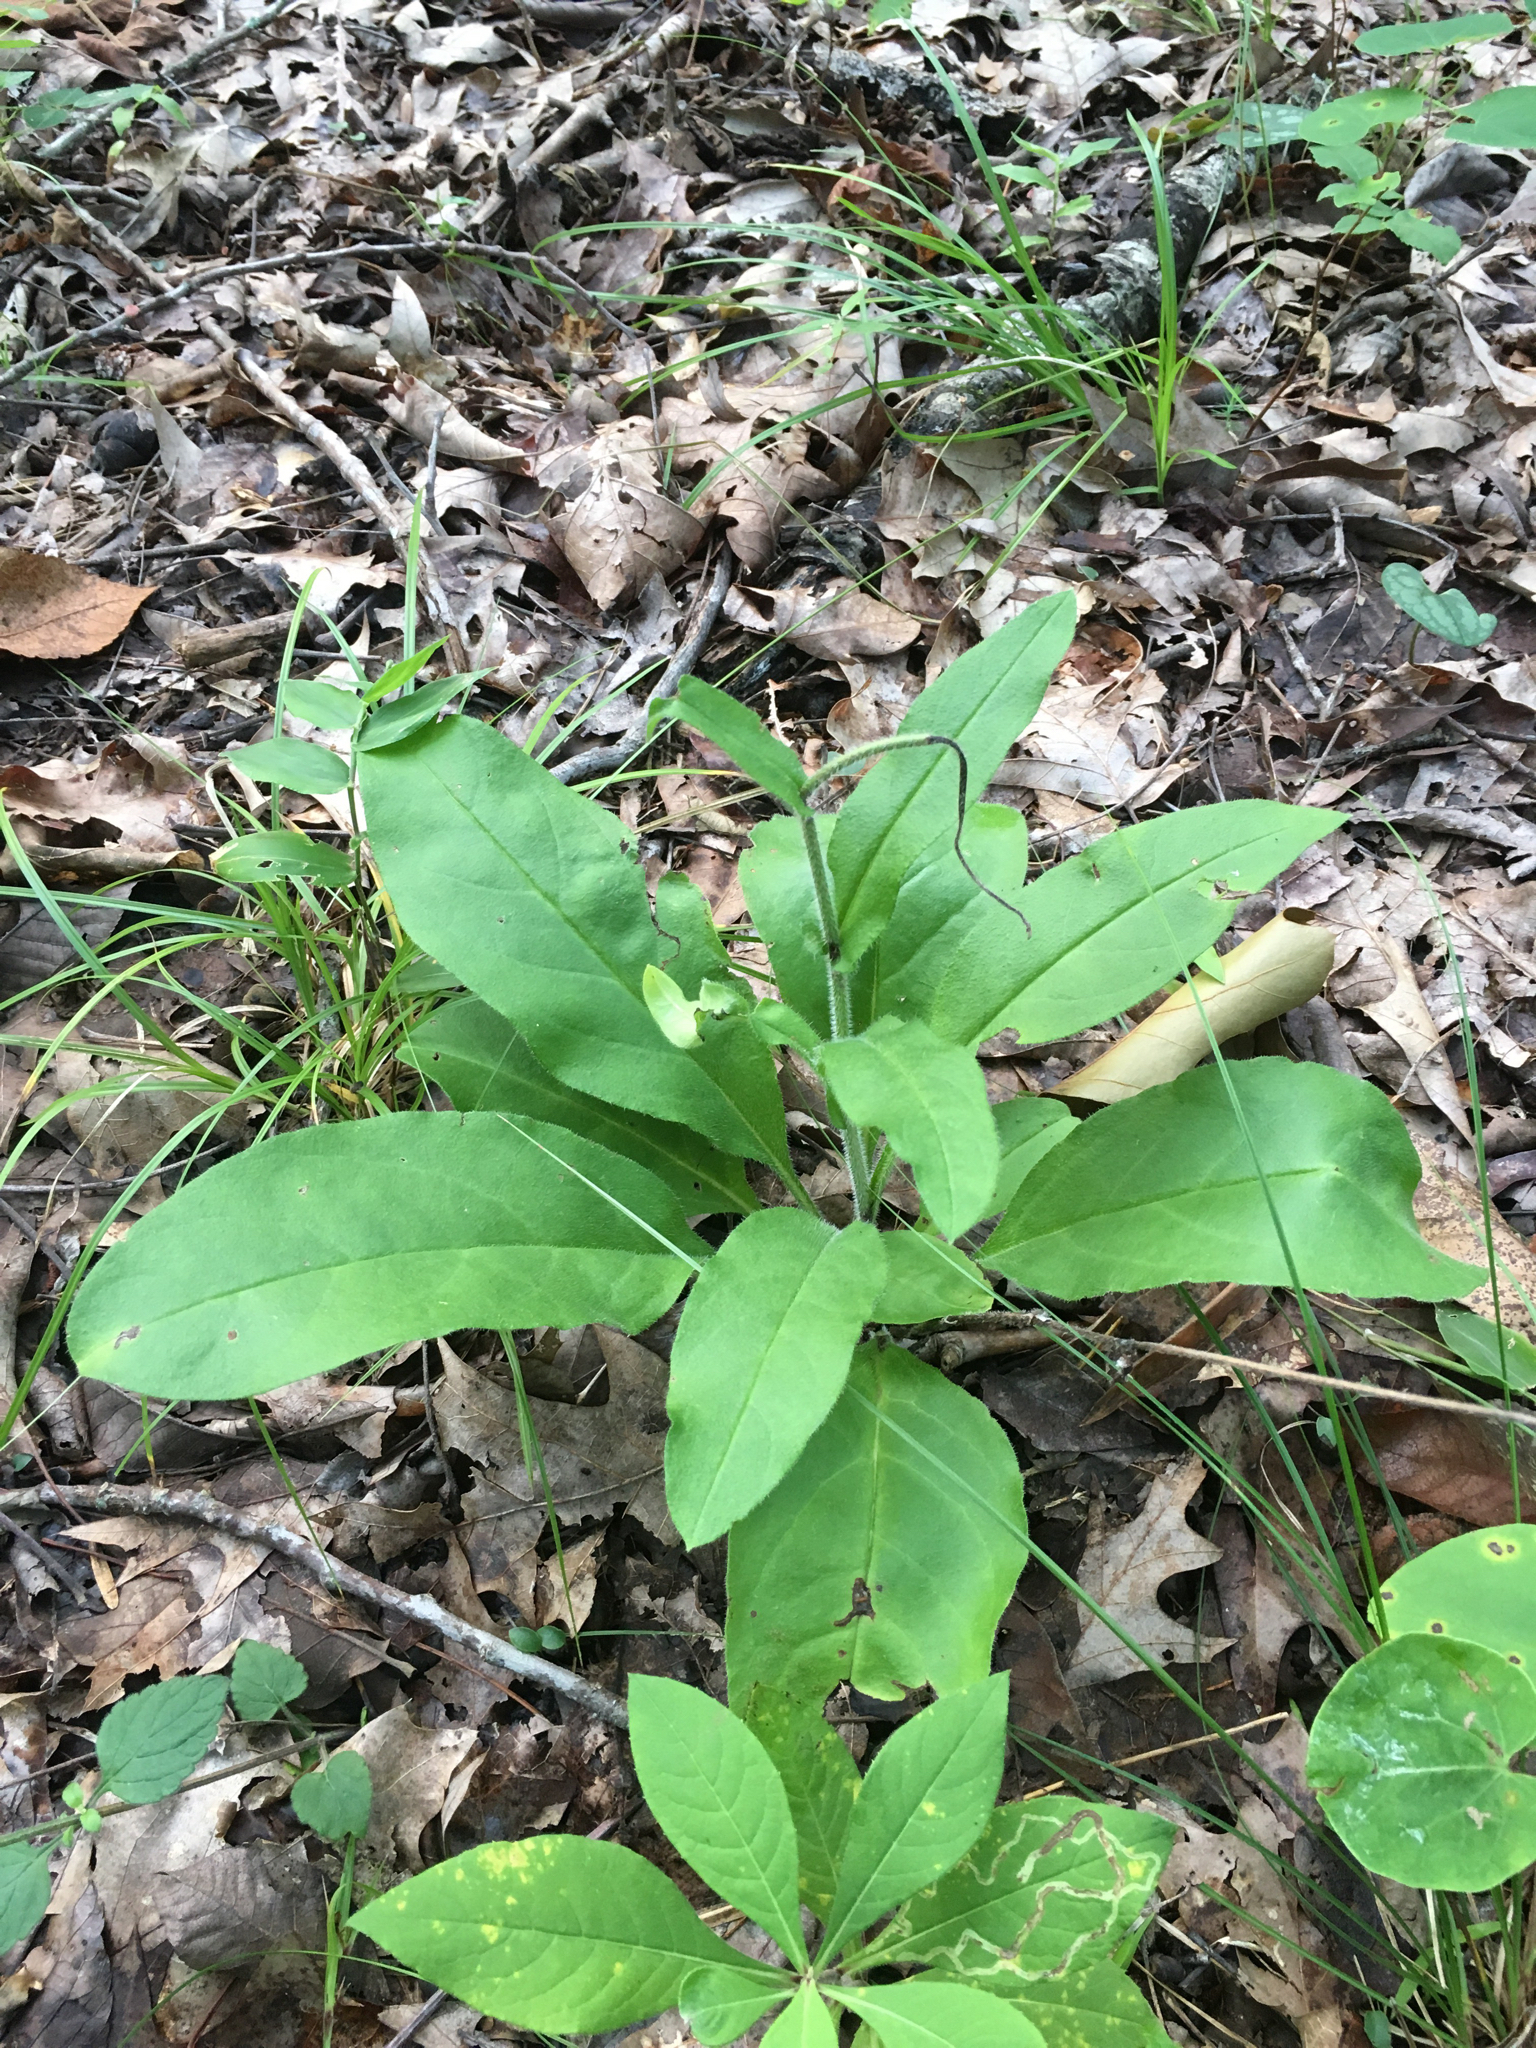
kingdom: Plantae
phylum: Tracheophyta
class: Magnoliopsida
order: Boraginales
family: Boraginaceae
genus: Andersonglossum
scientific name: Andersonglossum virginianum
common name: Wild comfrey
